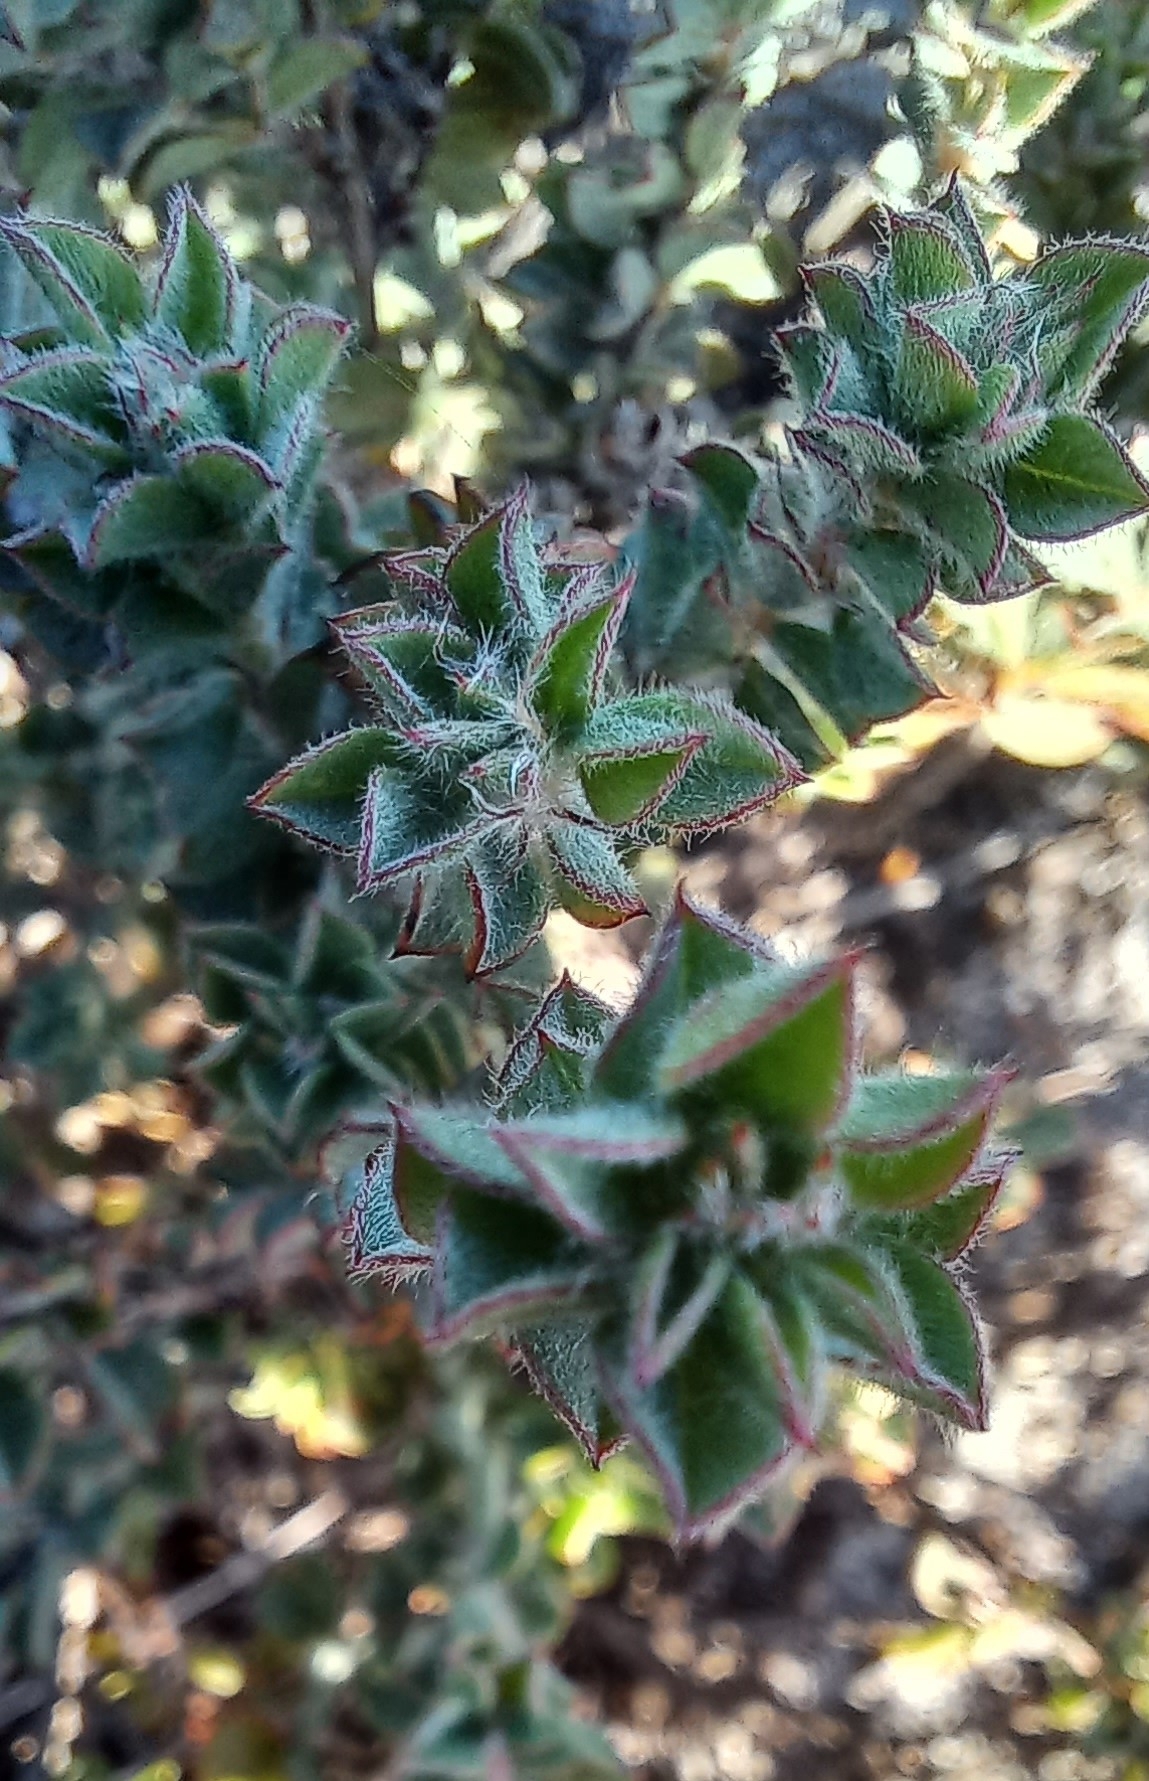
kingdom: Plantae
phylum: Tracheophyta
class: Magnoliopsida
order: Fabales
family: Fabaceae
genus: Indigofera
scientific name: Indigofera glomerata
